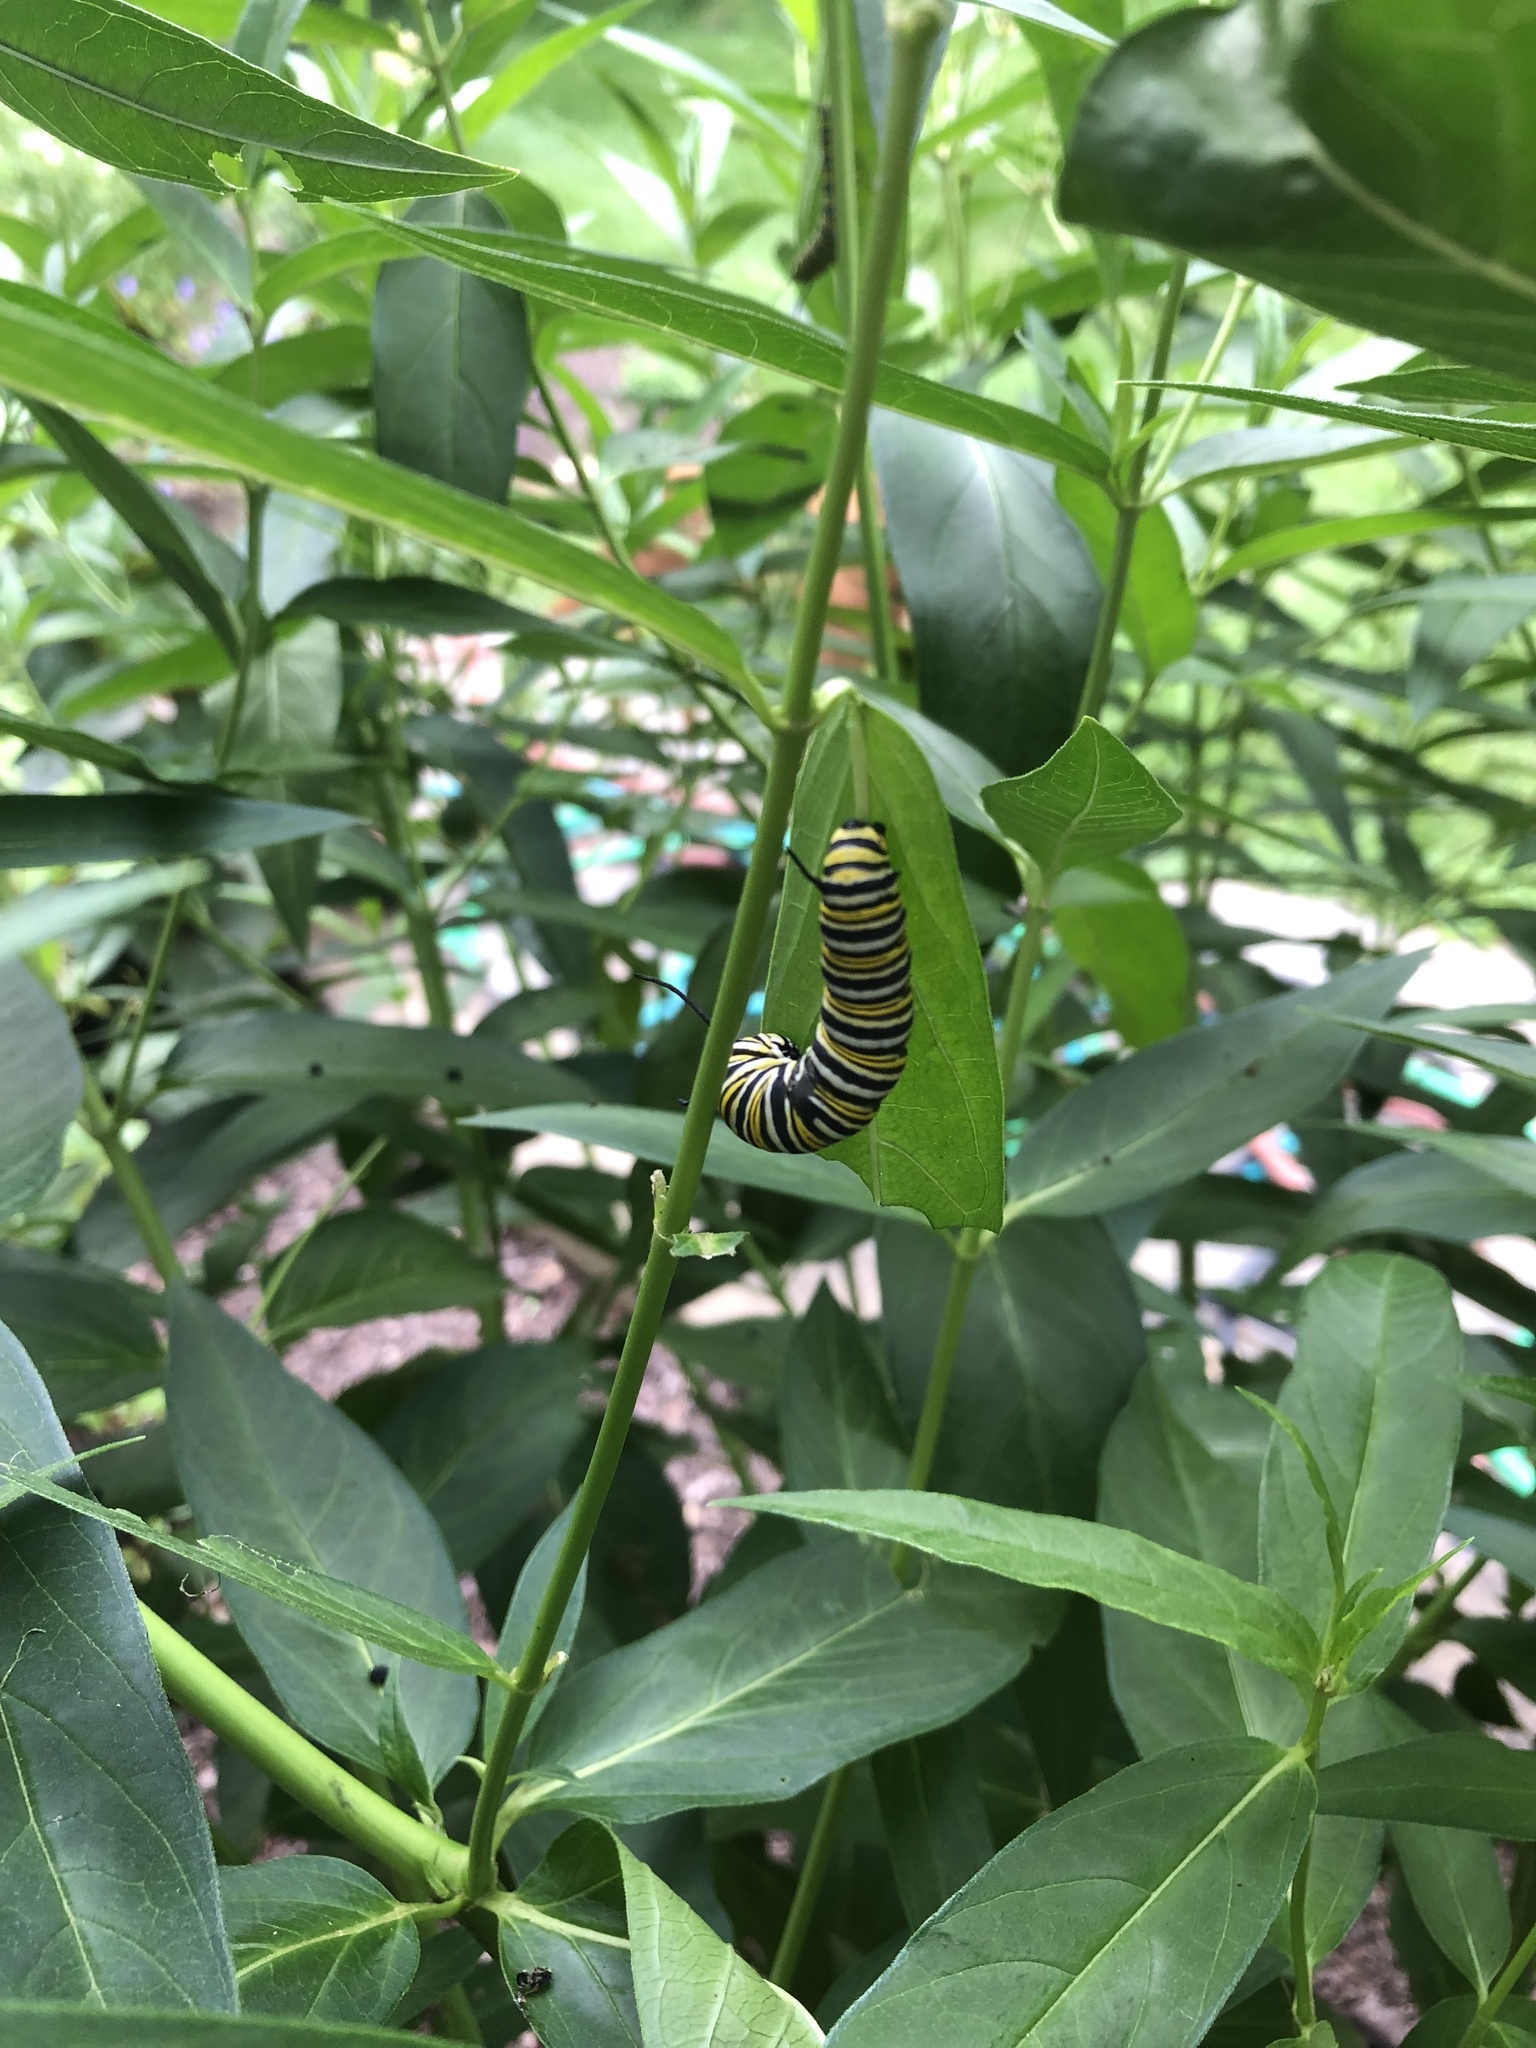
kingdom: Animalia
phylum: Arthropoda
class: Insecta
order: Lepidoptera
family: Nymphalidae
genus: Danaus
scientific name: Danaus plexippus
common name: Monarch
